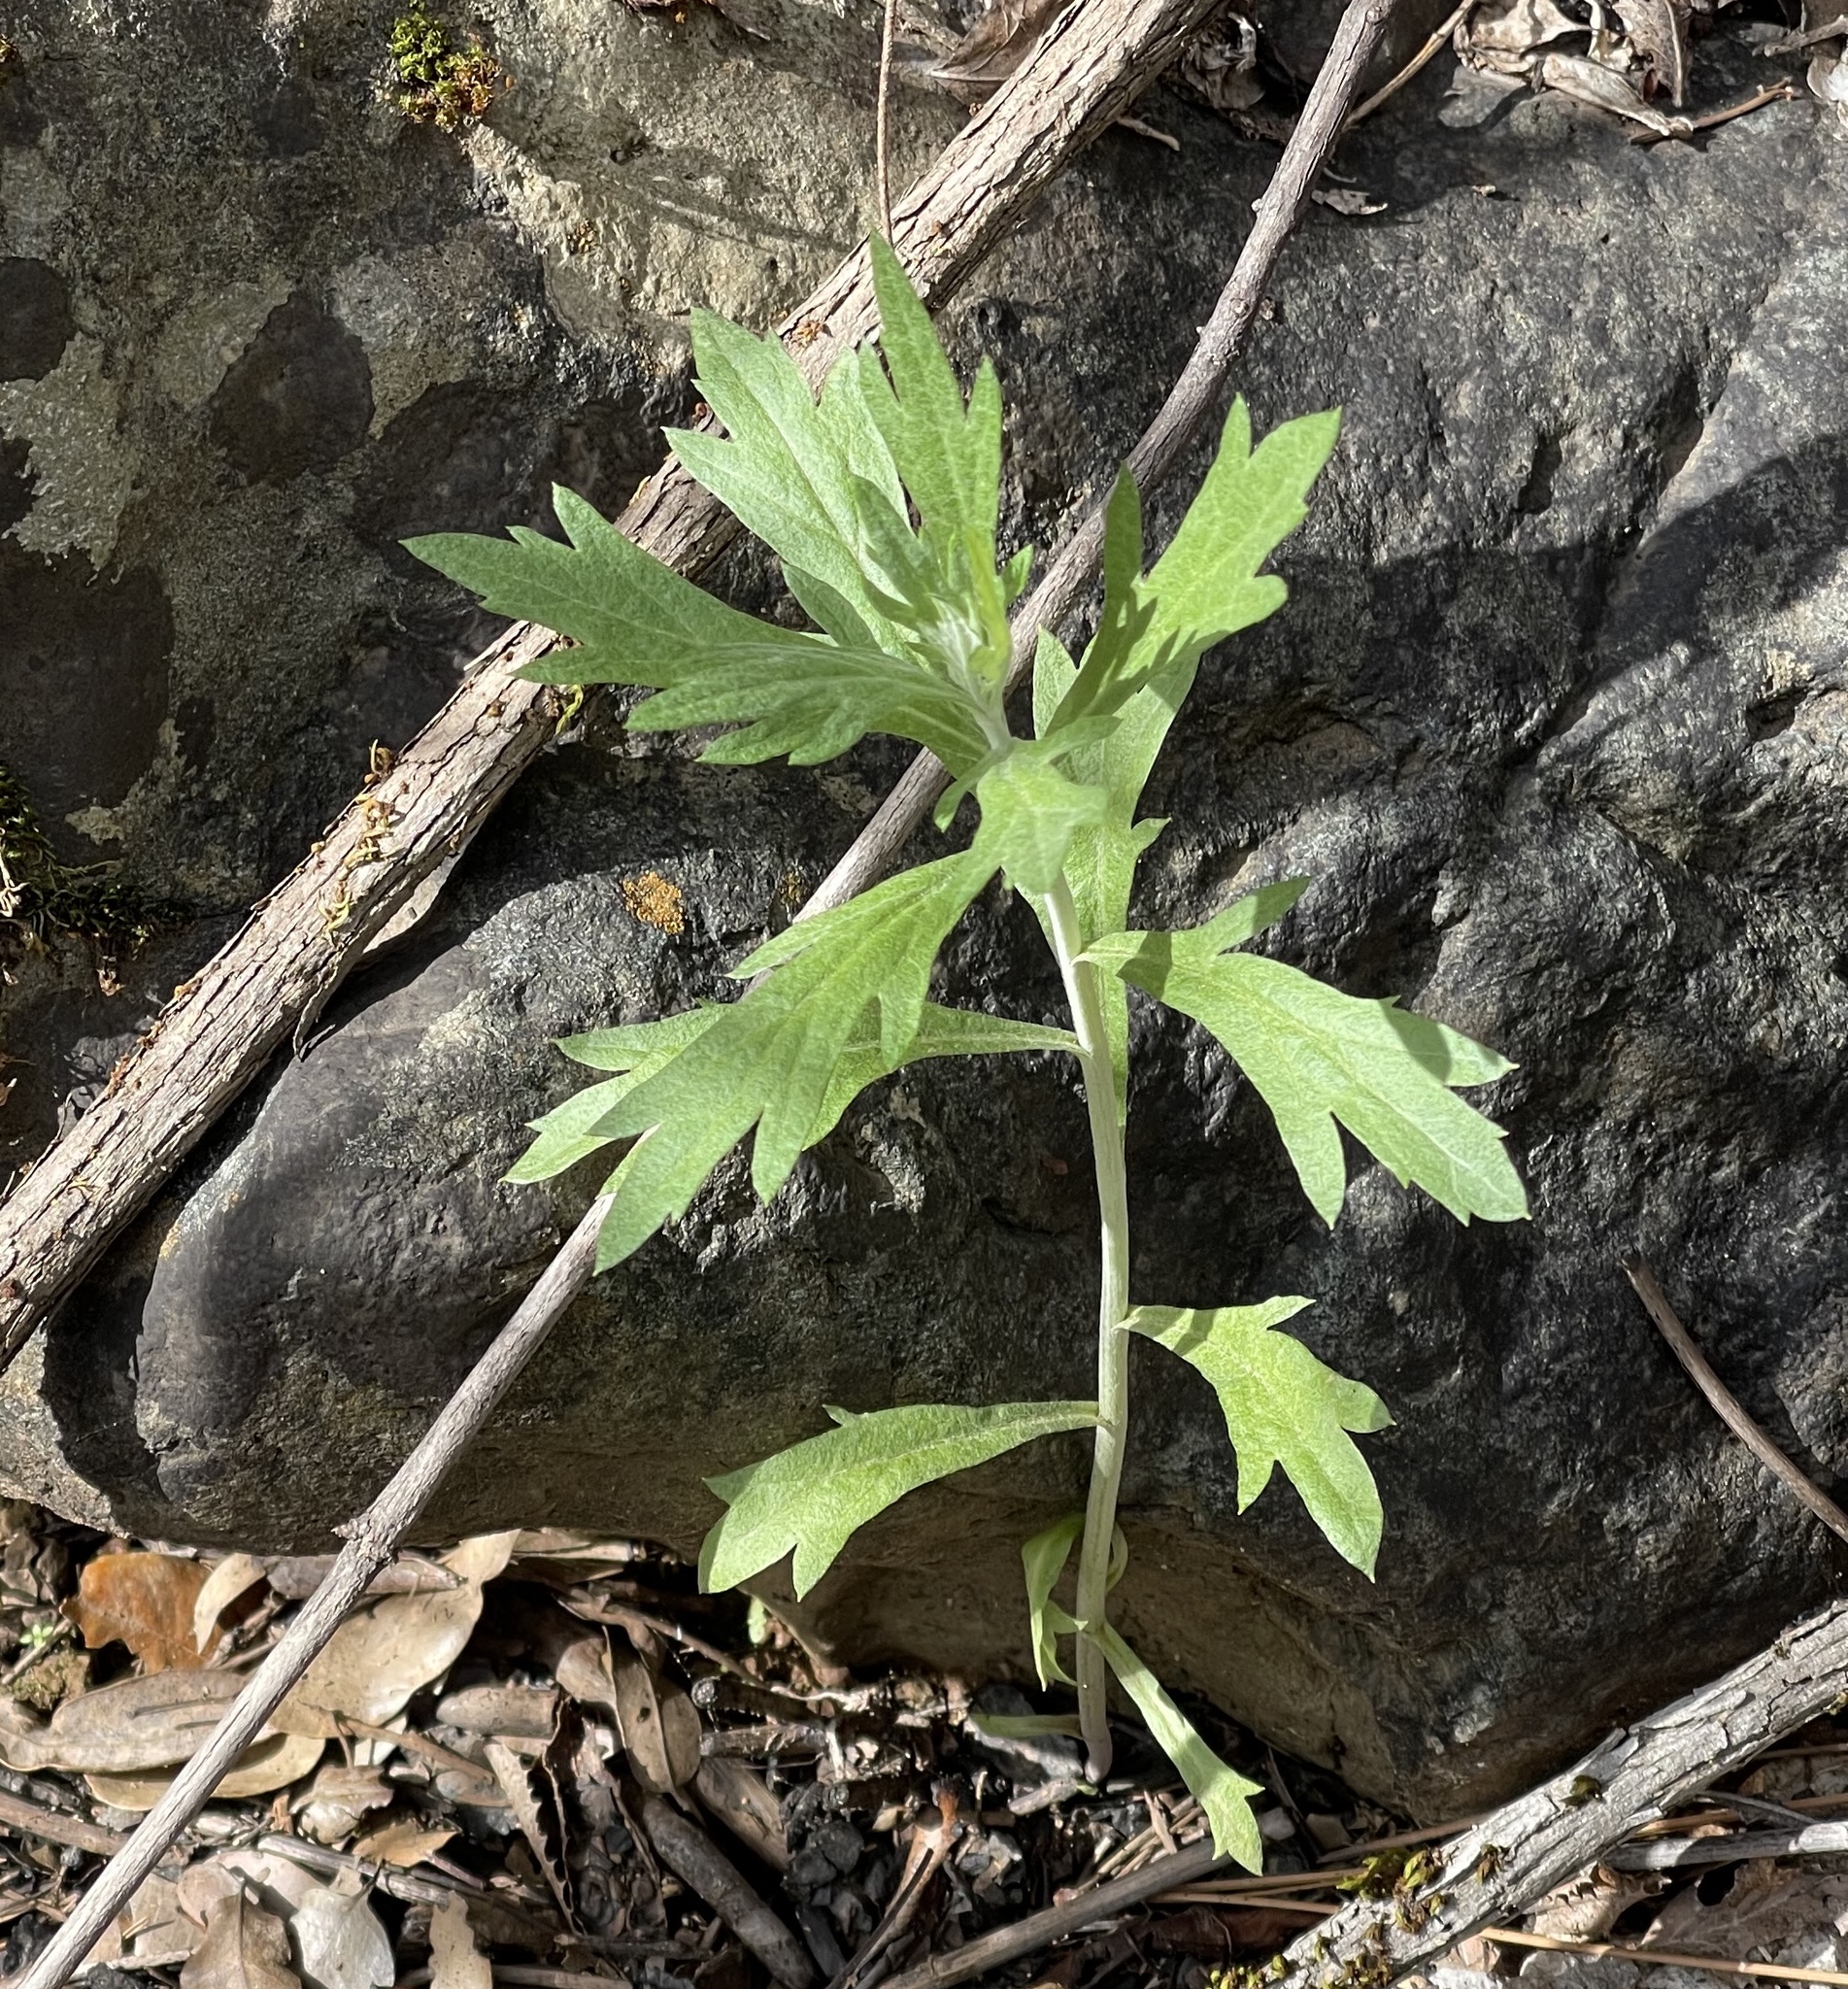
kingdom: Plantae
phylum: Tracheophyta
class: Magnoliopsida
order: Asterales
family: Asteraceae
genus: Artemisia
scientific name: Artemisia douglasiana
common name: Northwest mugwort
